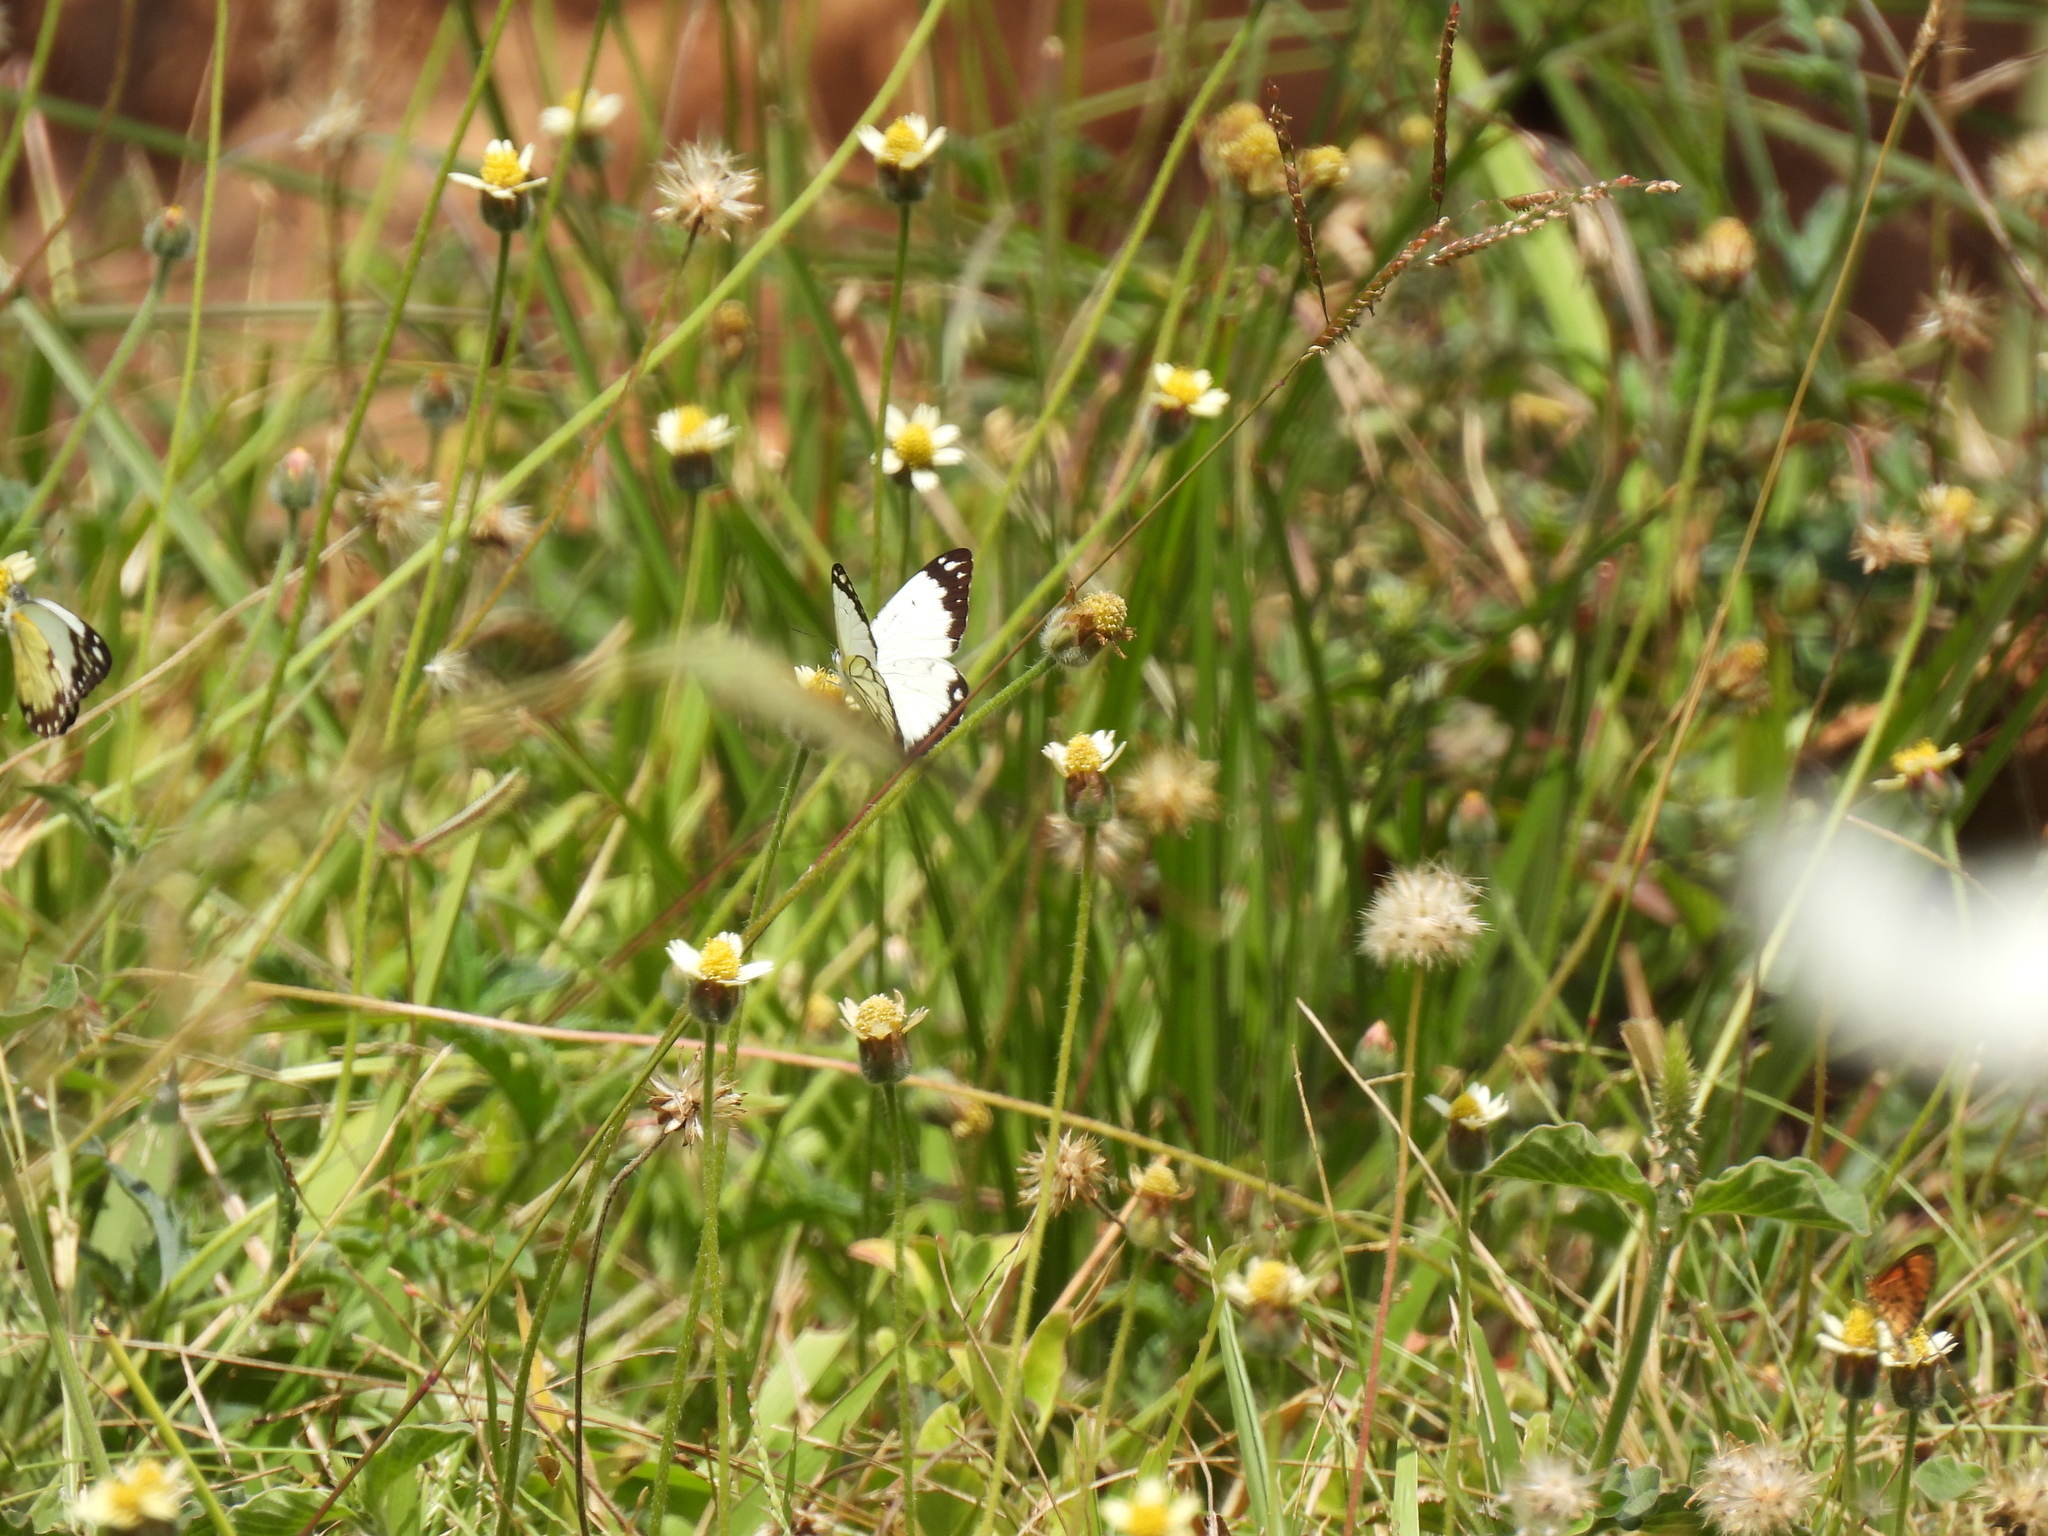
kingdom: Animalia
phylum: Arthropoda
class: Insecta
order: Lepidoptera
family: Pieridae
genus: Belenois
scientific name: Belenois creona
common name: African caper white
